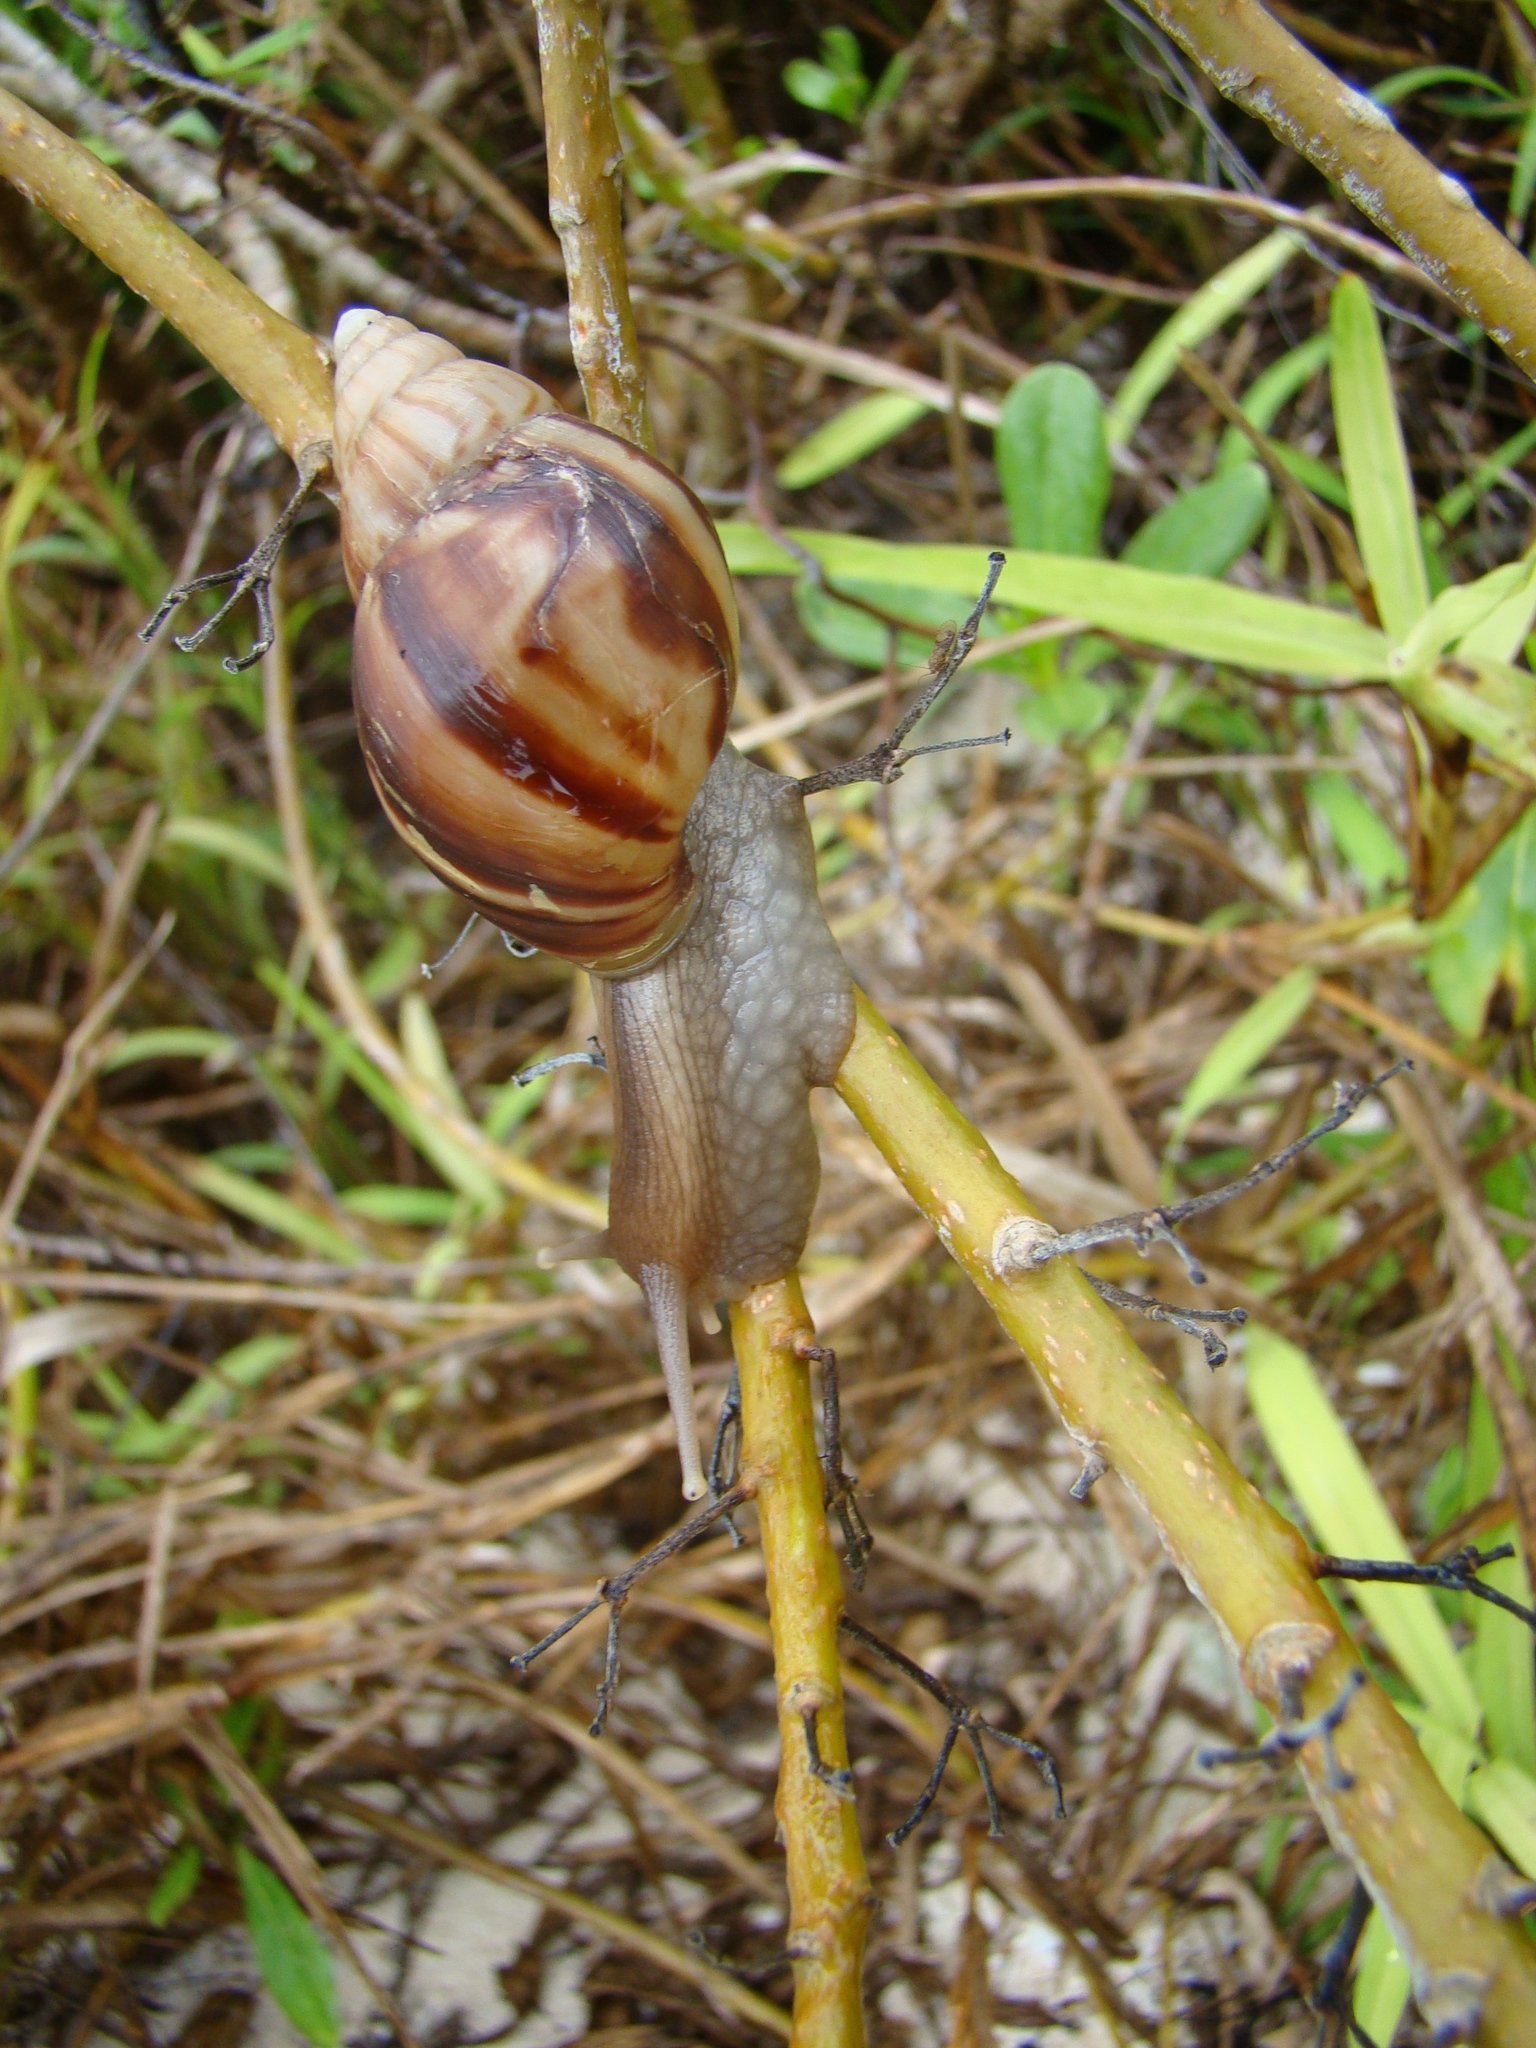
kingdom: Animalia
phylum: Mollusca
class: Gastropoda
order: Stylommatophora
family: Achatinidae
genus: Lissachatina
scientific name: Lissachatina fulica
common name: Giant african snail
